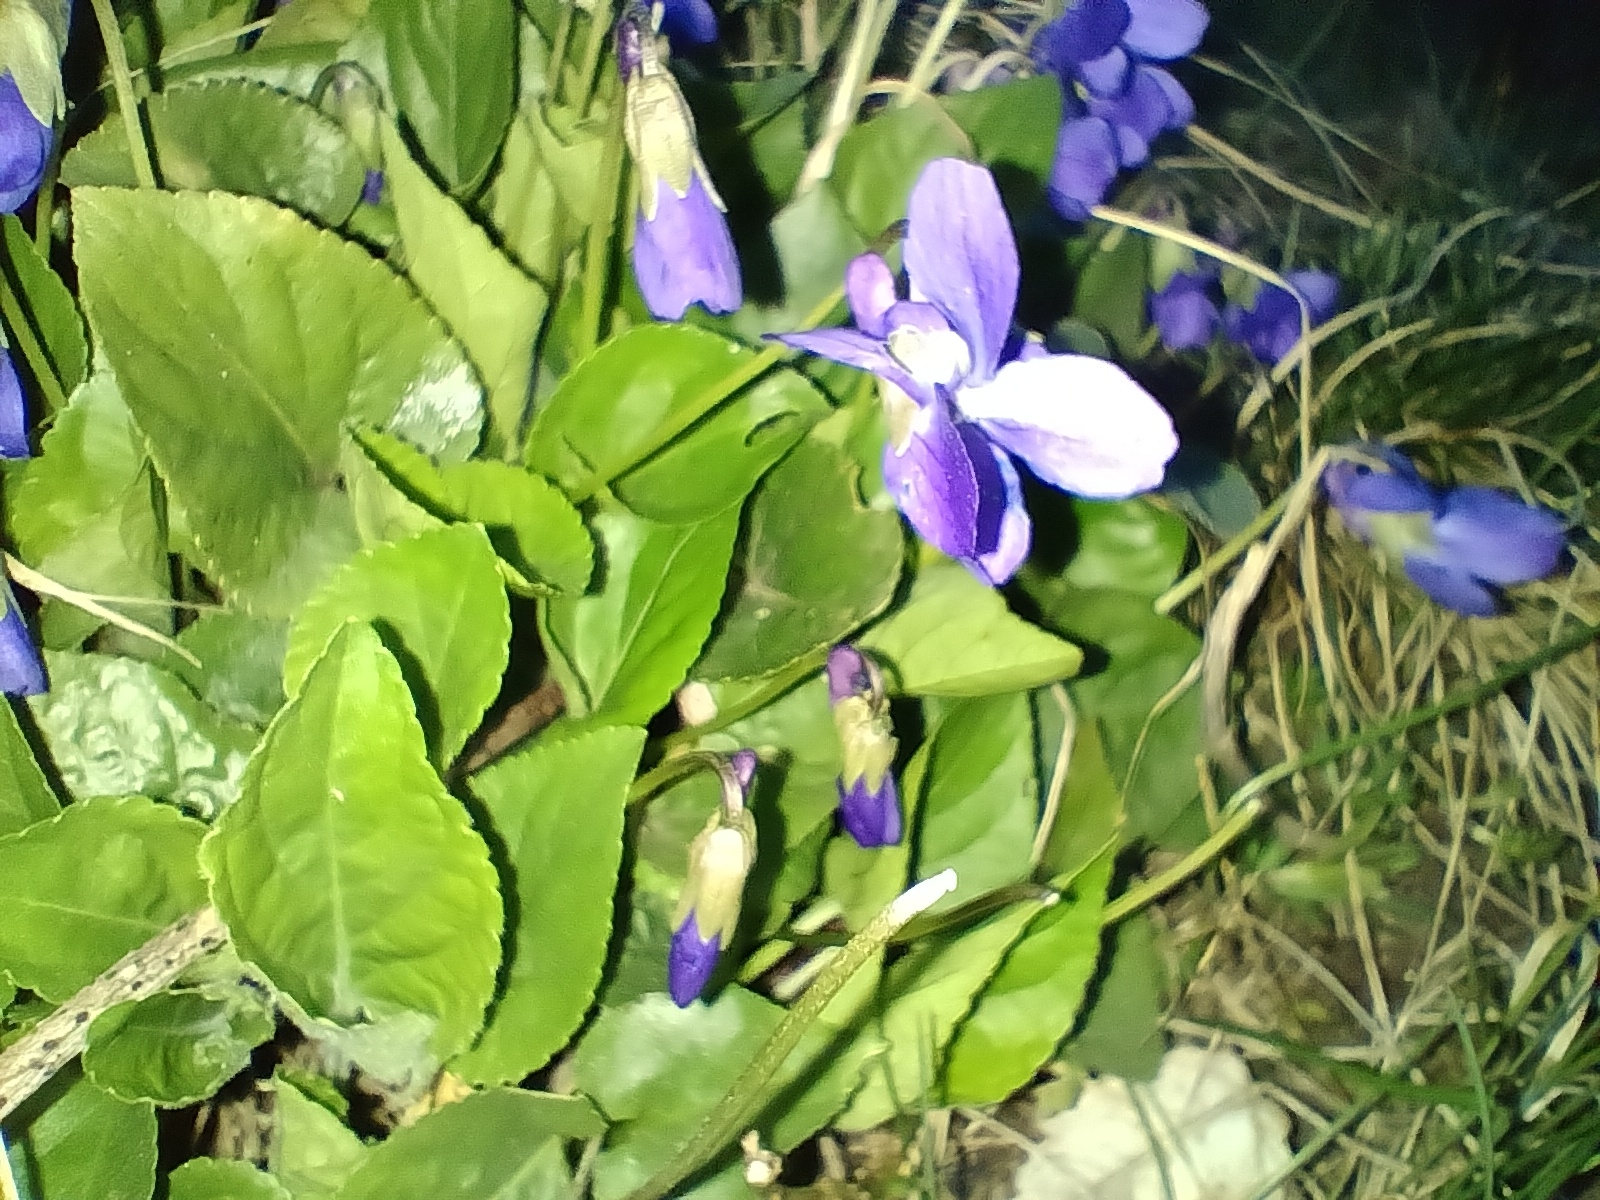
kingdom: Plantae
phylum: Tracheophyta
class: Magnoliopsida
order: Malpighiales
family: Violaceae
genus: Viola
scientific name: Viola odorata
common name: Sweet violet
